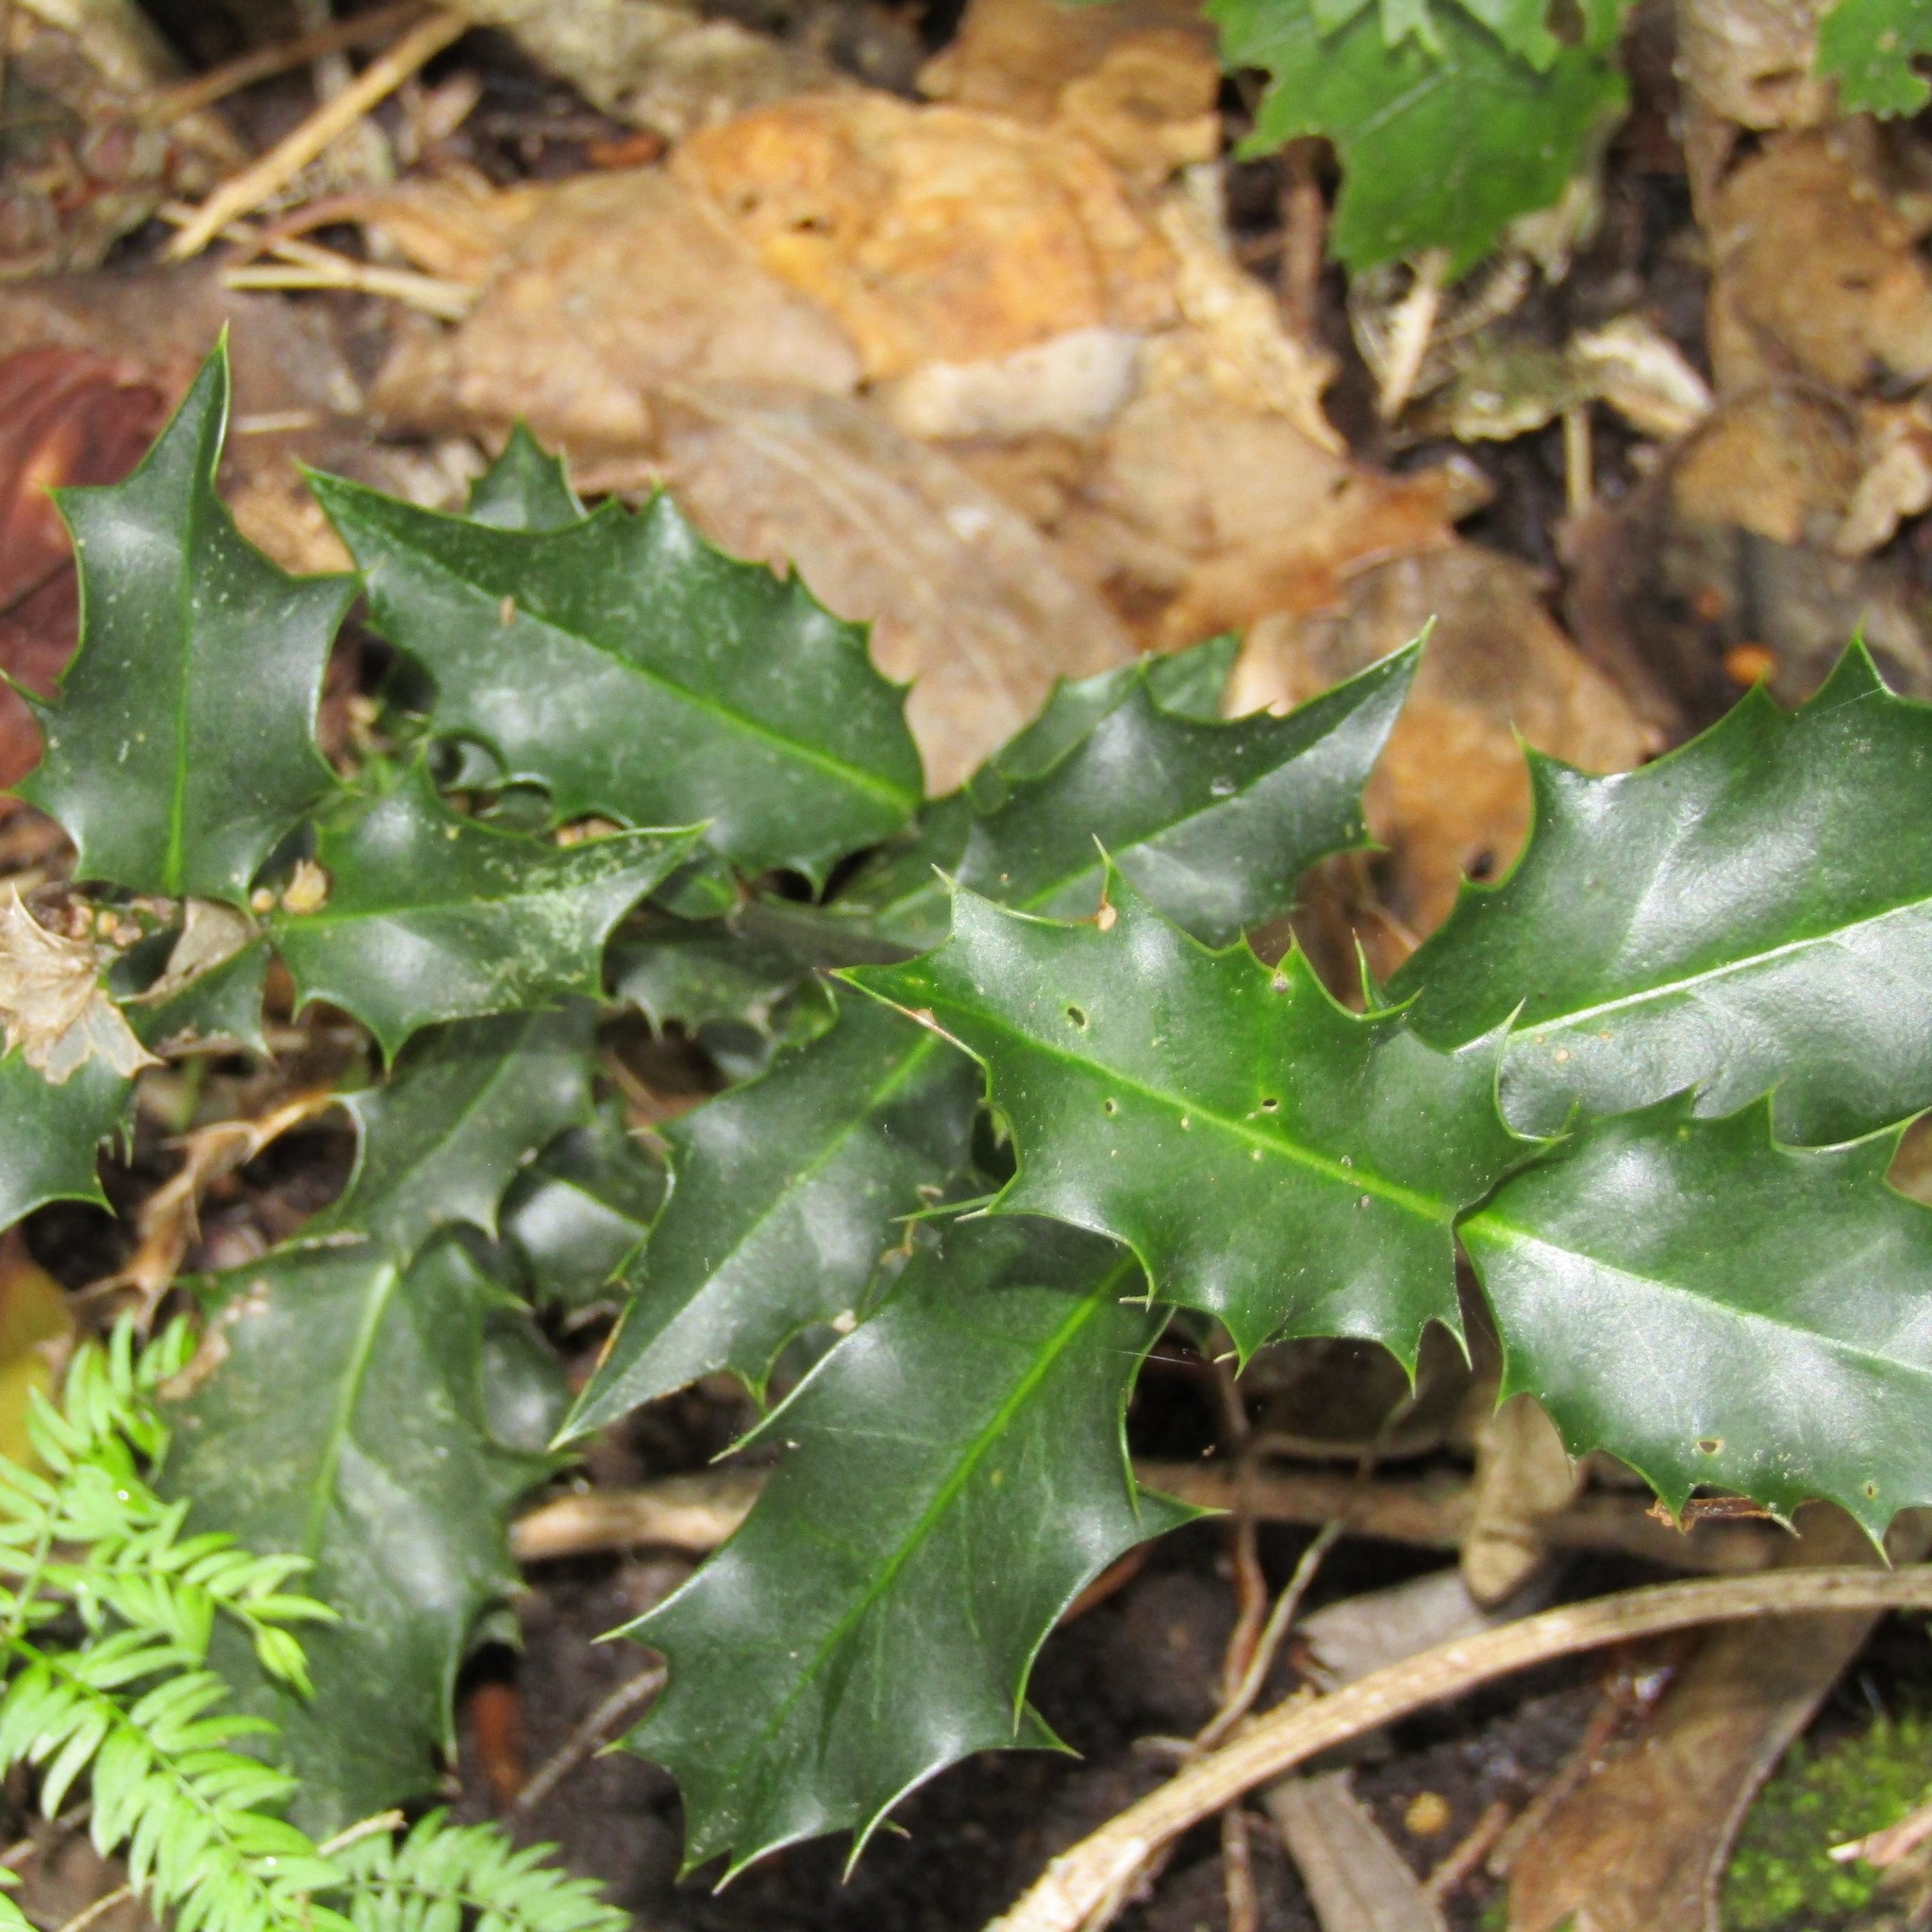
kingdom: Plantae
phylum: Tracheophyta
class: Magnoliopsida
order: Aquifoliales
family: Aquifoliaceae
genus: Ilex
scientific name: Ilex aquifolium
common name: English holly
